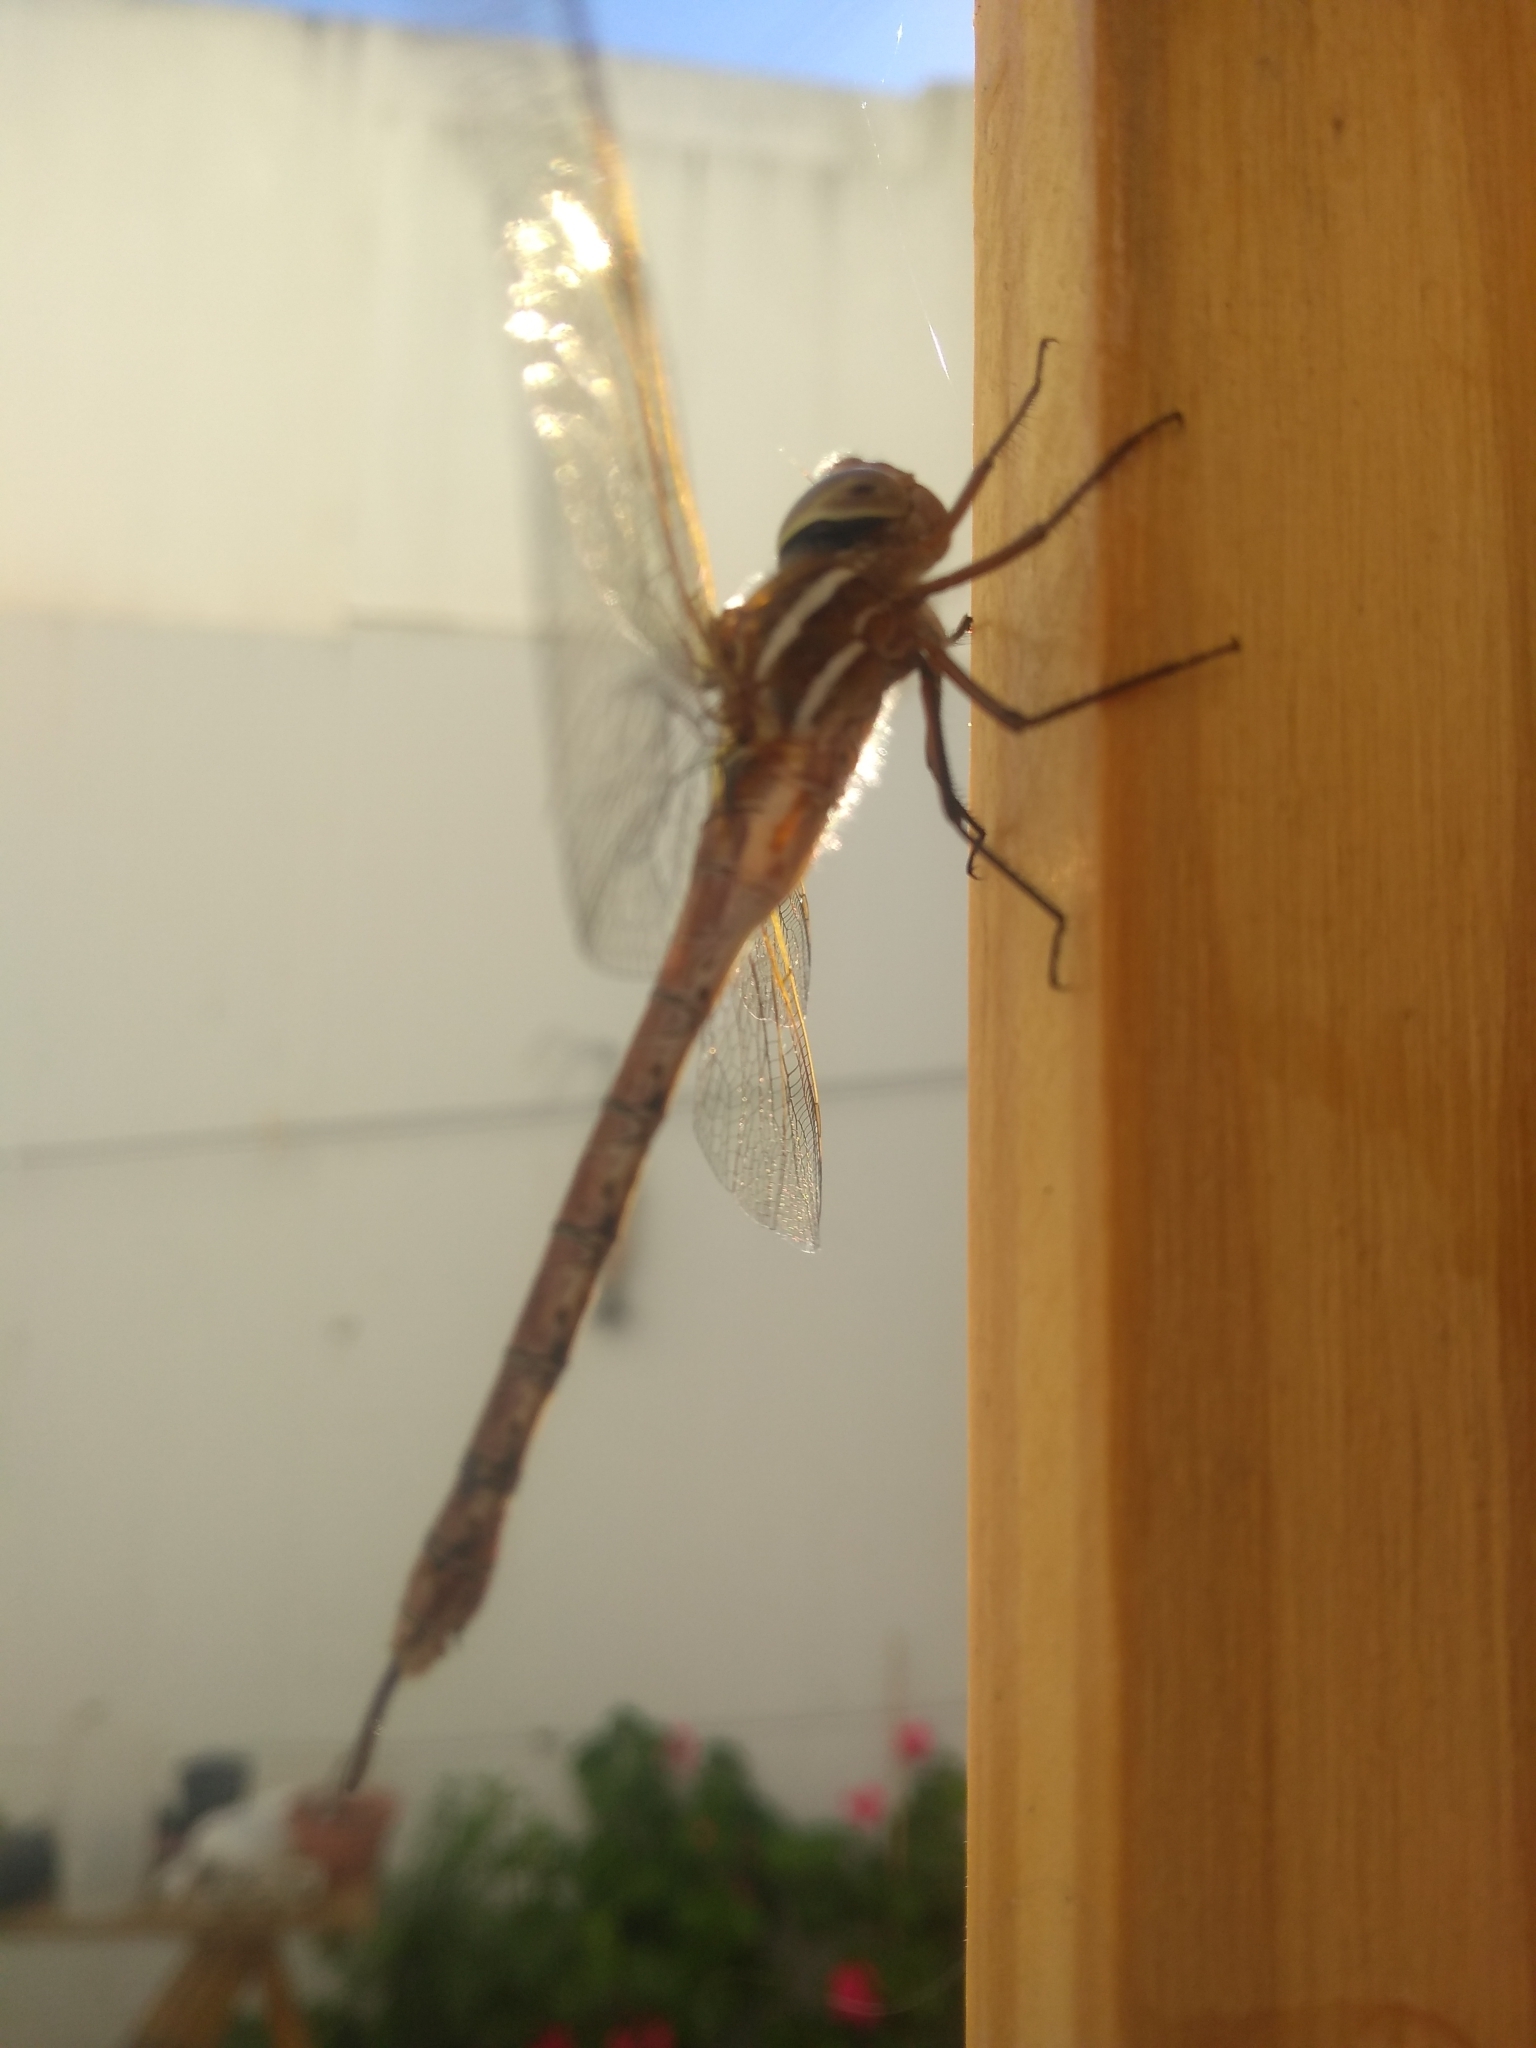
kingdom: Animalia
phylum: Arthropoda
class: Insecta
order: Odonata
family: Aeshnidae
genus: Rhionaeschna
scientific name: Rhionaeschna bonariensis
